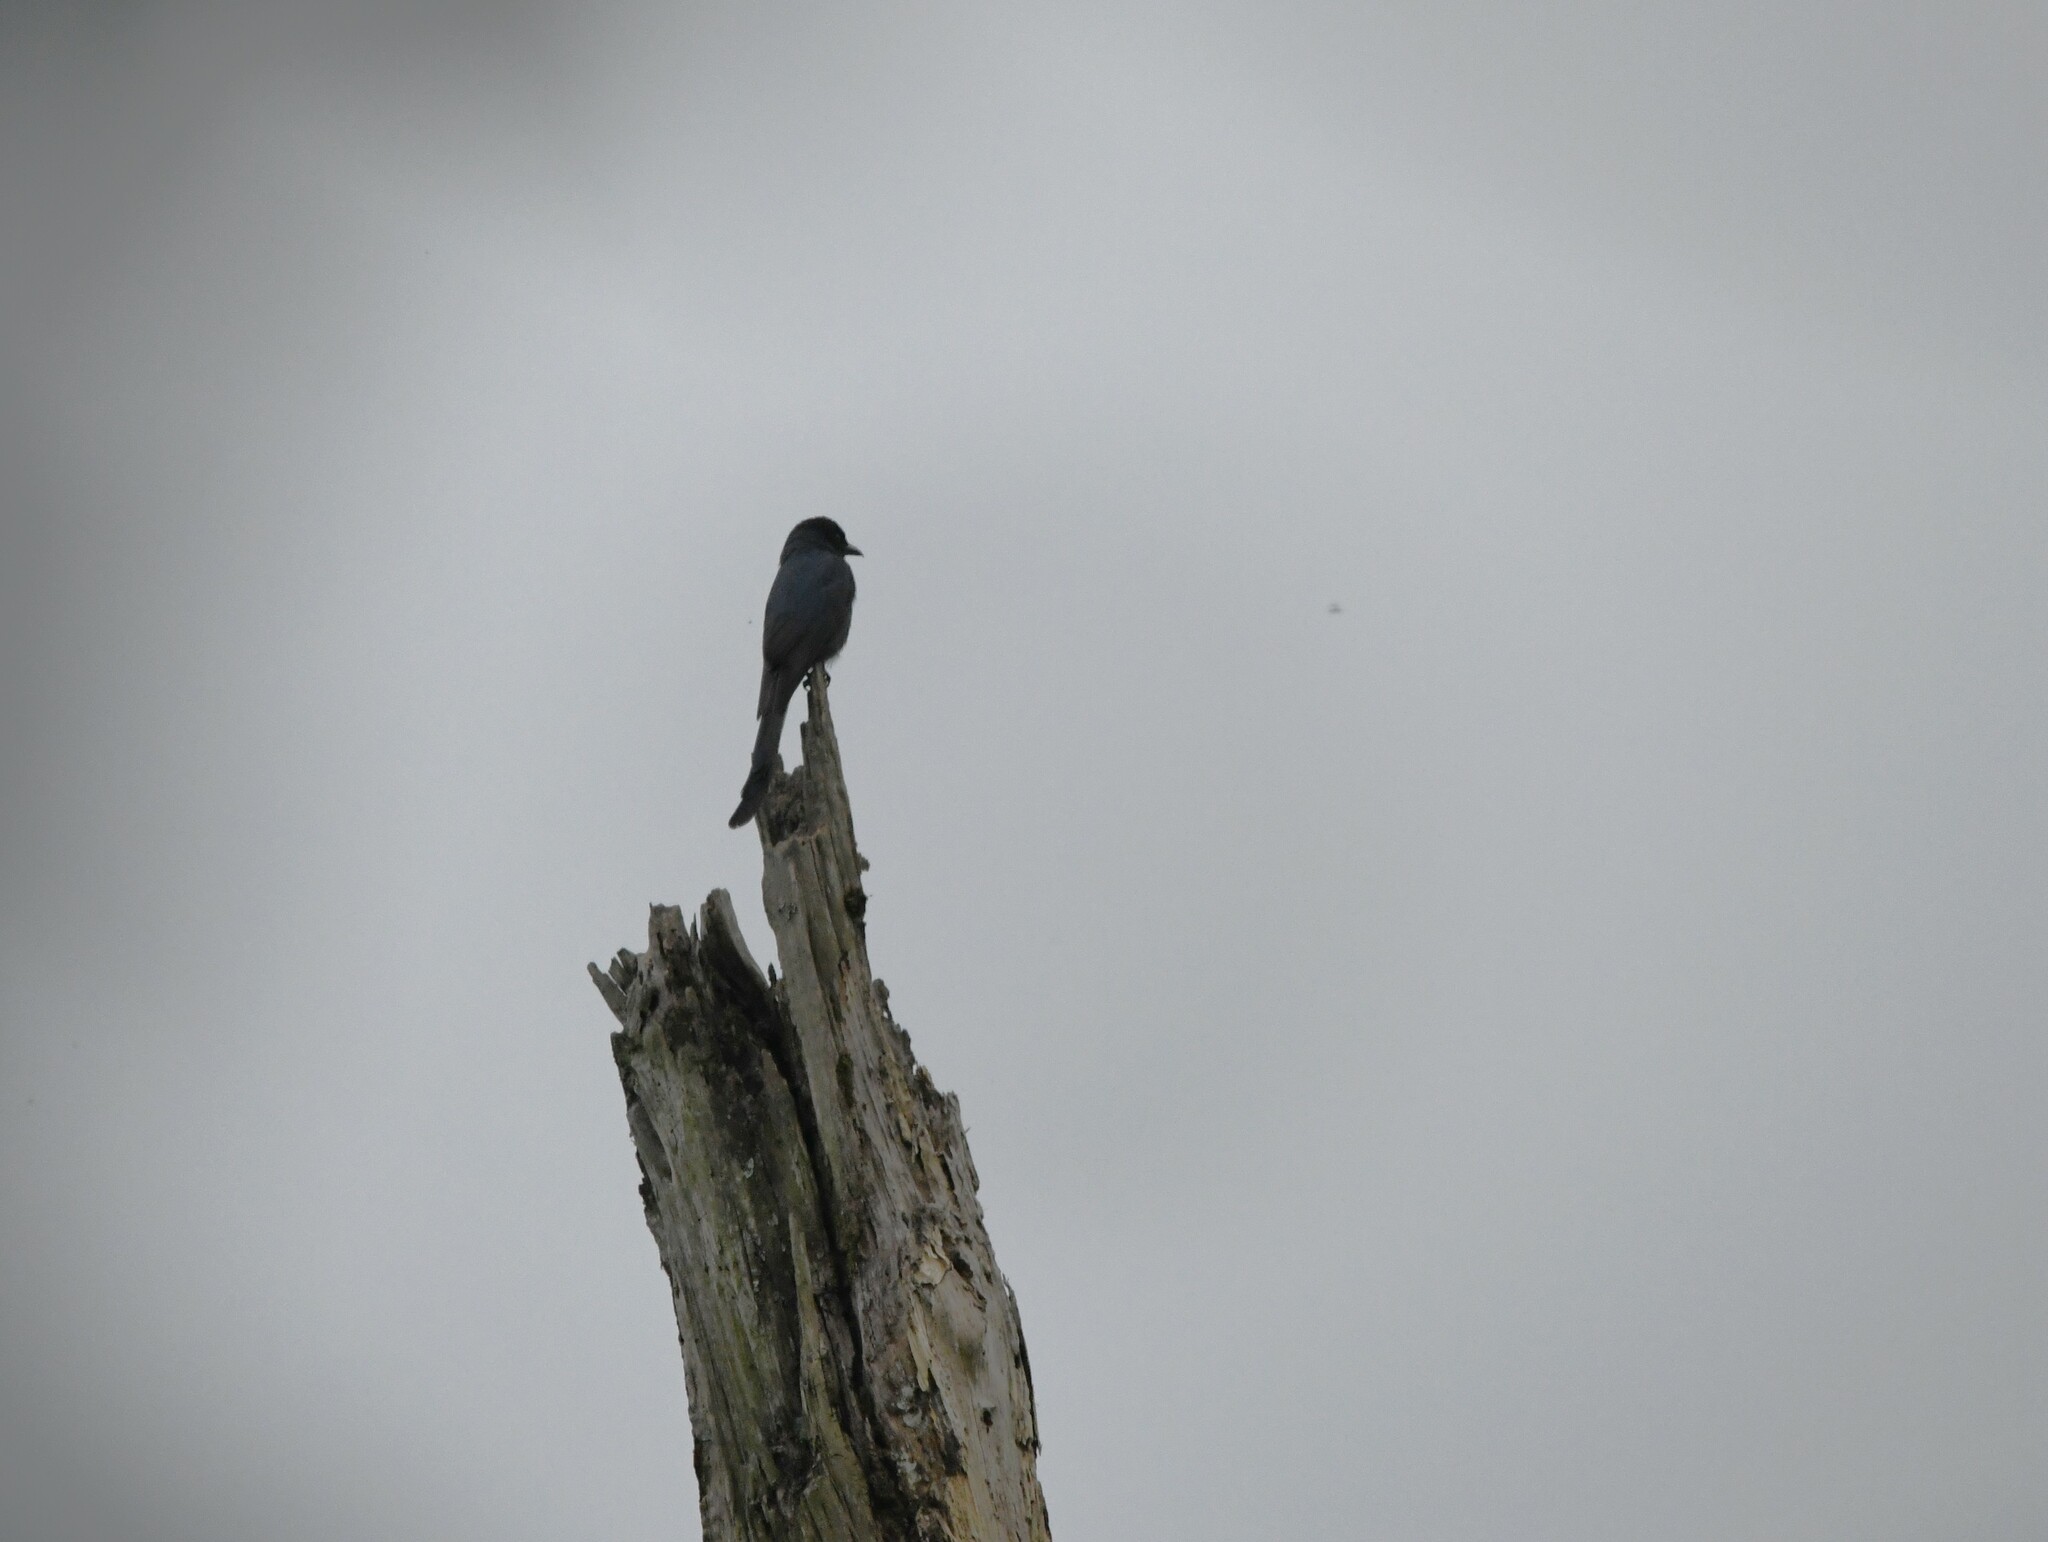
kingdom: Animalia
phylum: Chordata
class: Aves
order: Passeriformes
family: Dicruridae
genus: Dicrurus
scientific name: Dicrurus leucophaeus
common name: Ashy drongo
